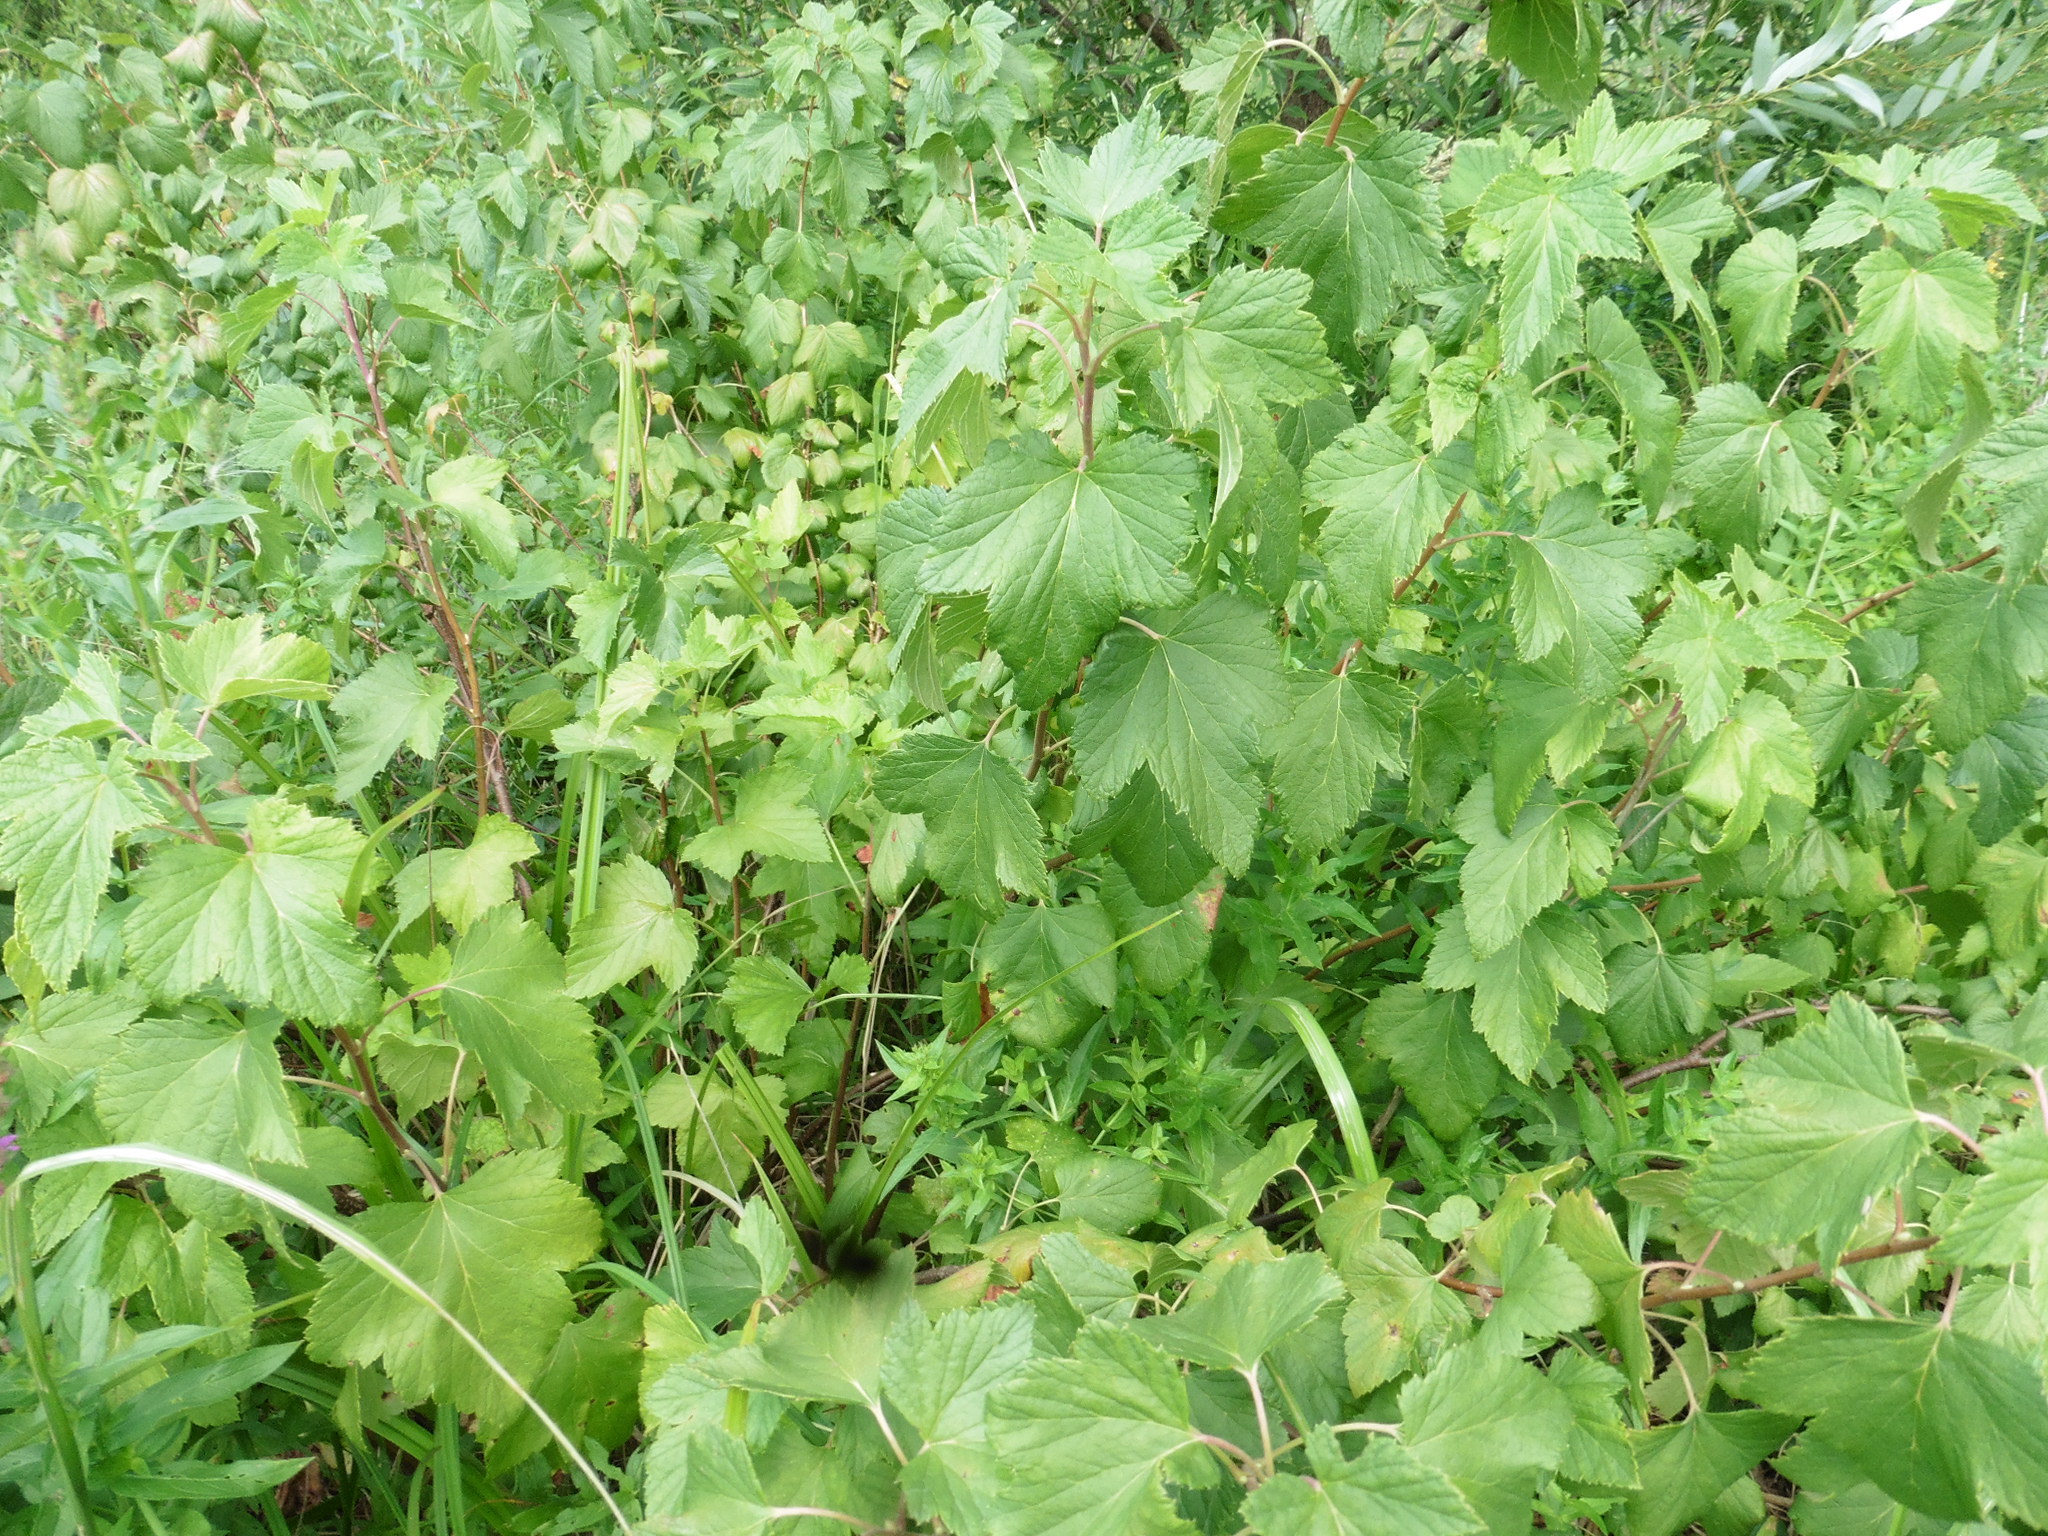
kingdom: Plantae
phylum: Tracheophyta
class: Magnoliopsida
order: Saxifragales
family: Grossulariaceae
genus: Ribes
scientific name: Ribes nigrum
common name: Black currant
